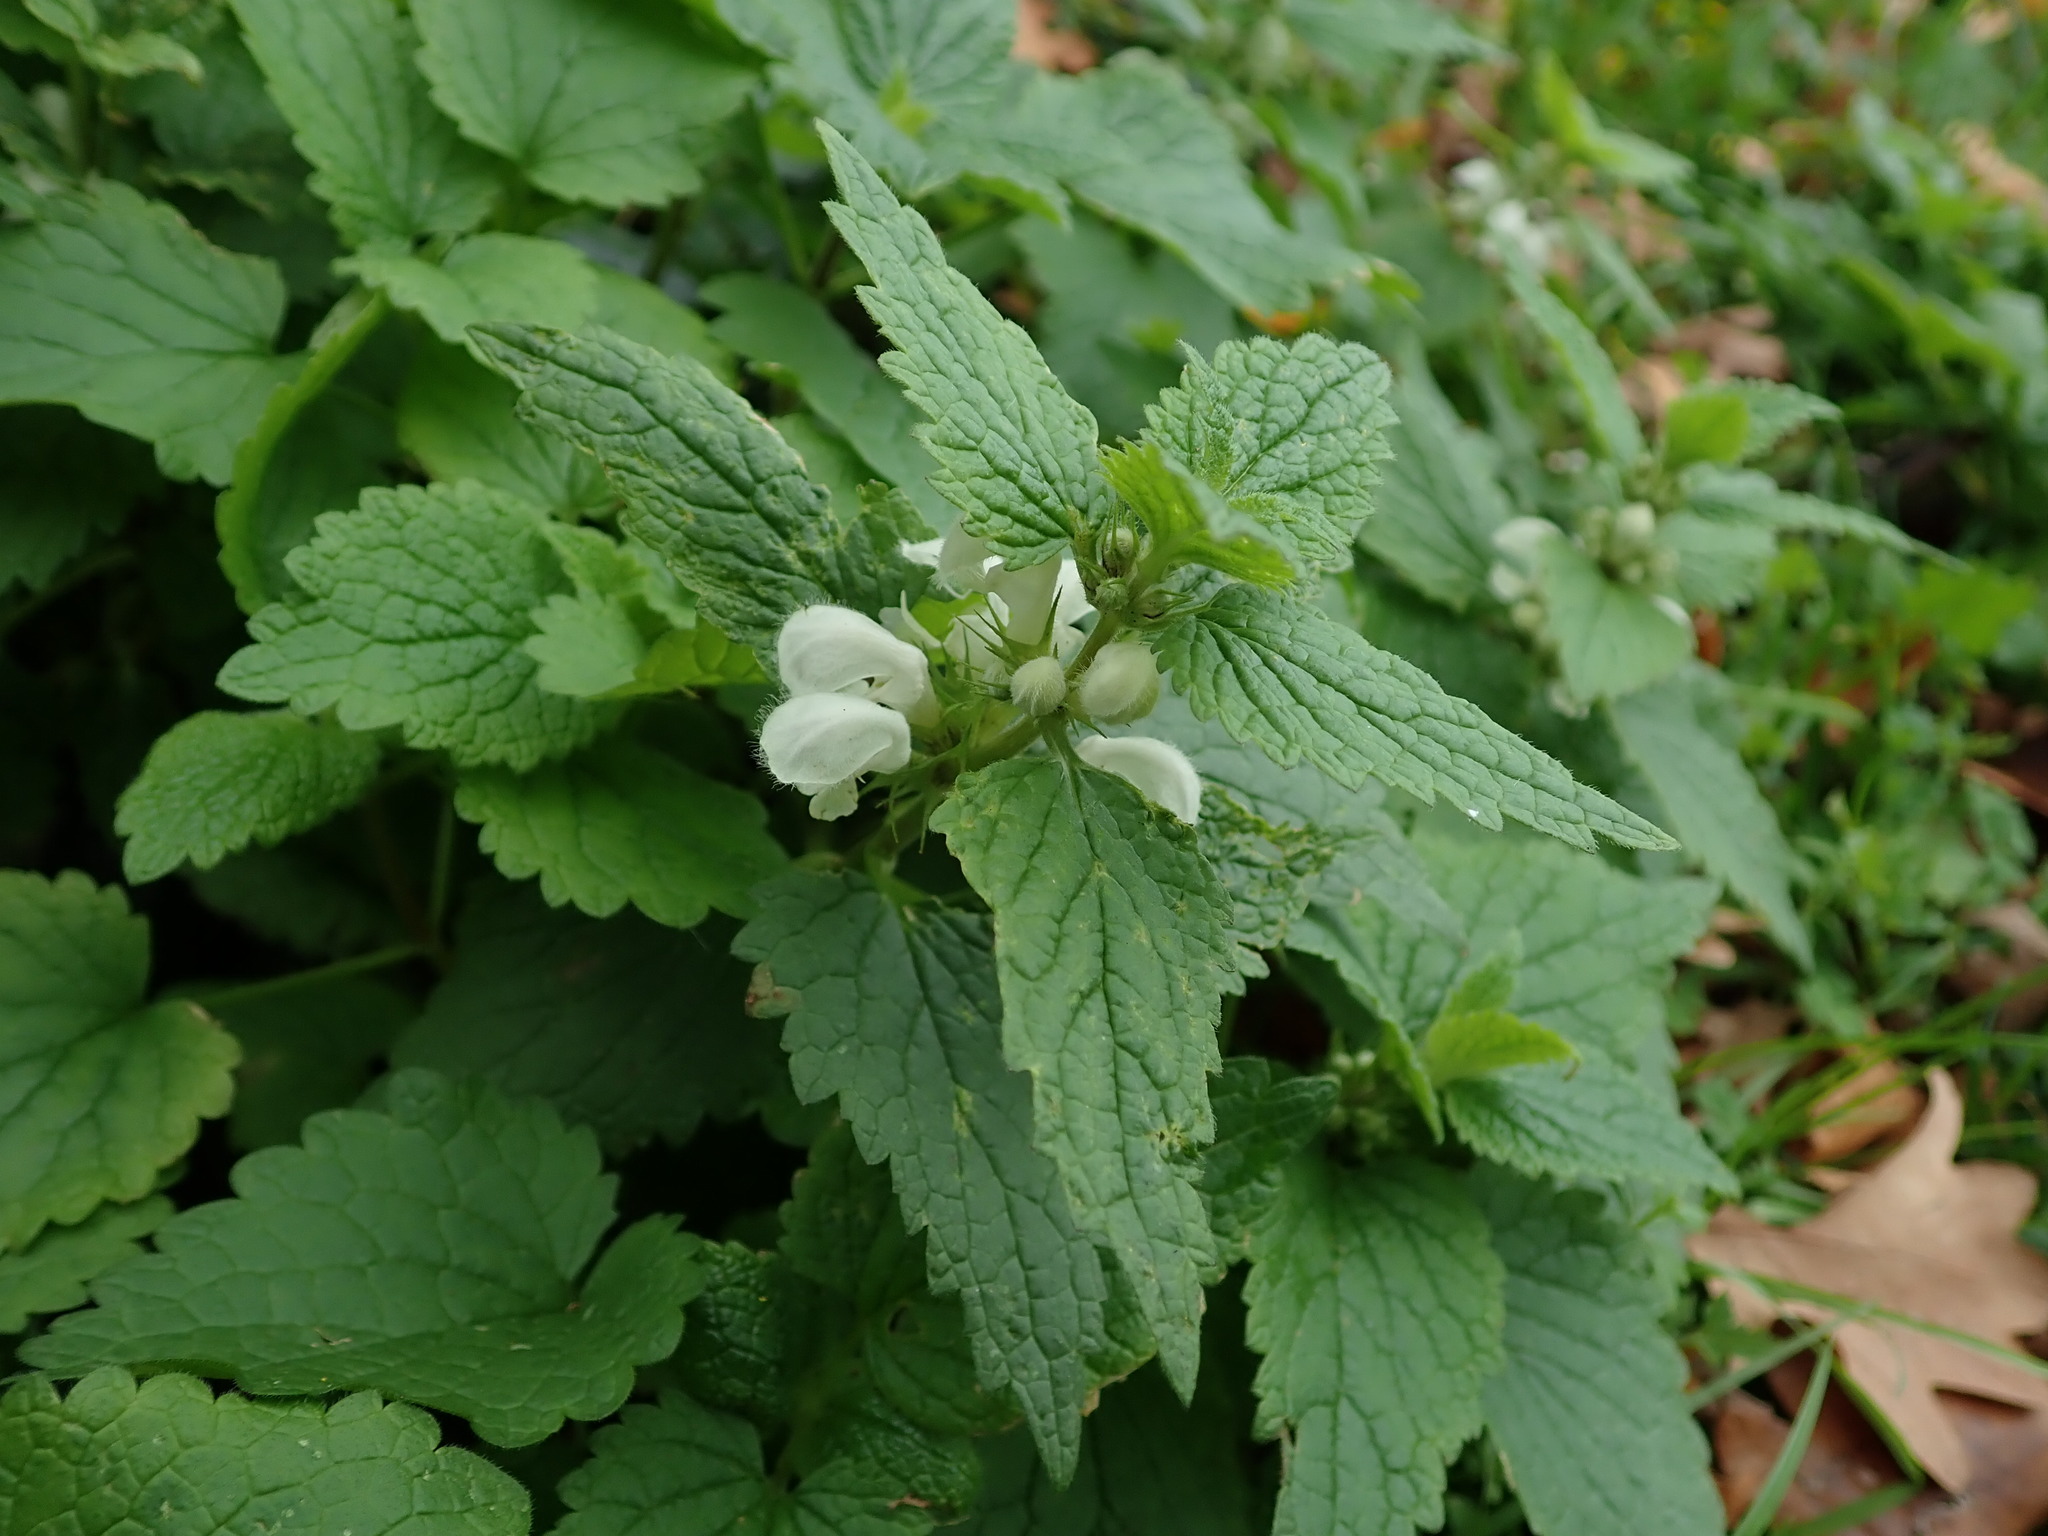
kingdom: Plantae
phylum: Tracheophyta
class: Magnoliopsida
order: Lamiales
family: Lamiaceae
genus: Lamium
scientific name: Lamium album
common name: White dead-nettle
